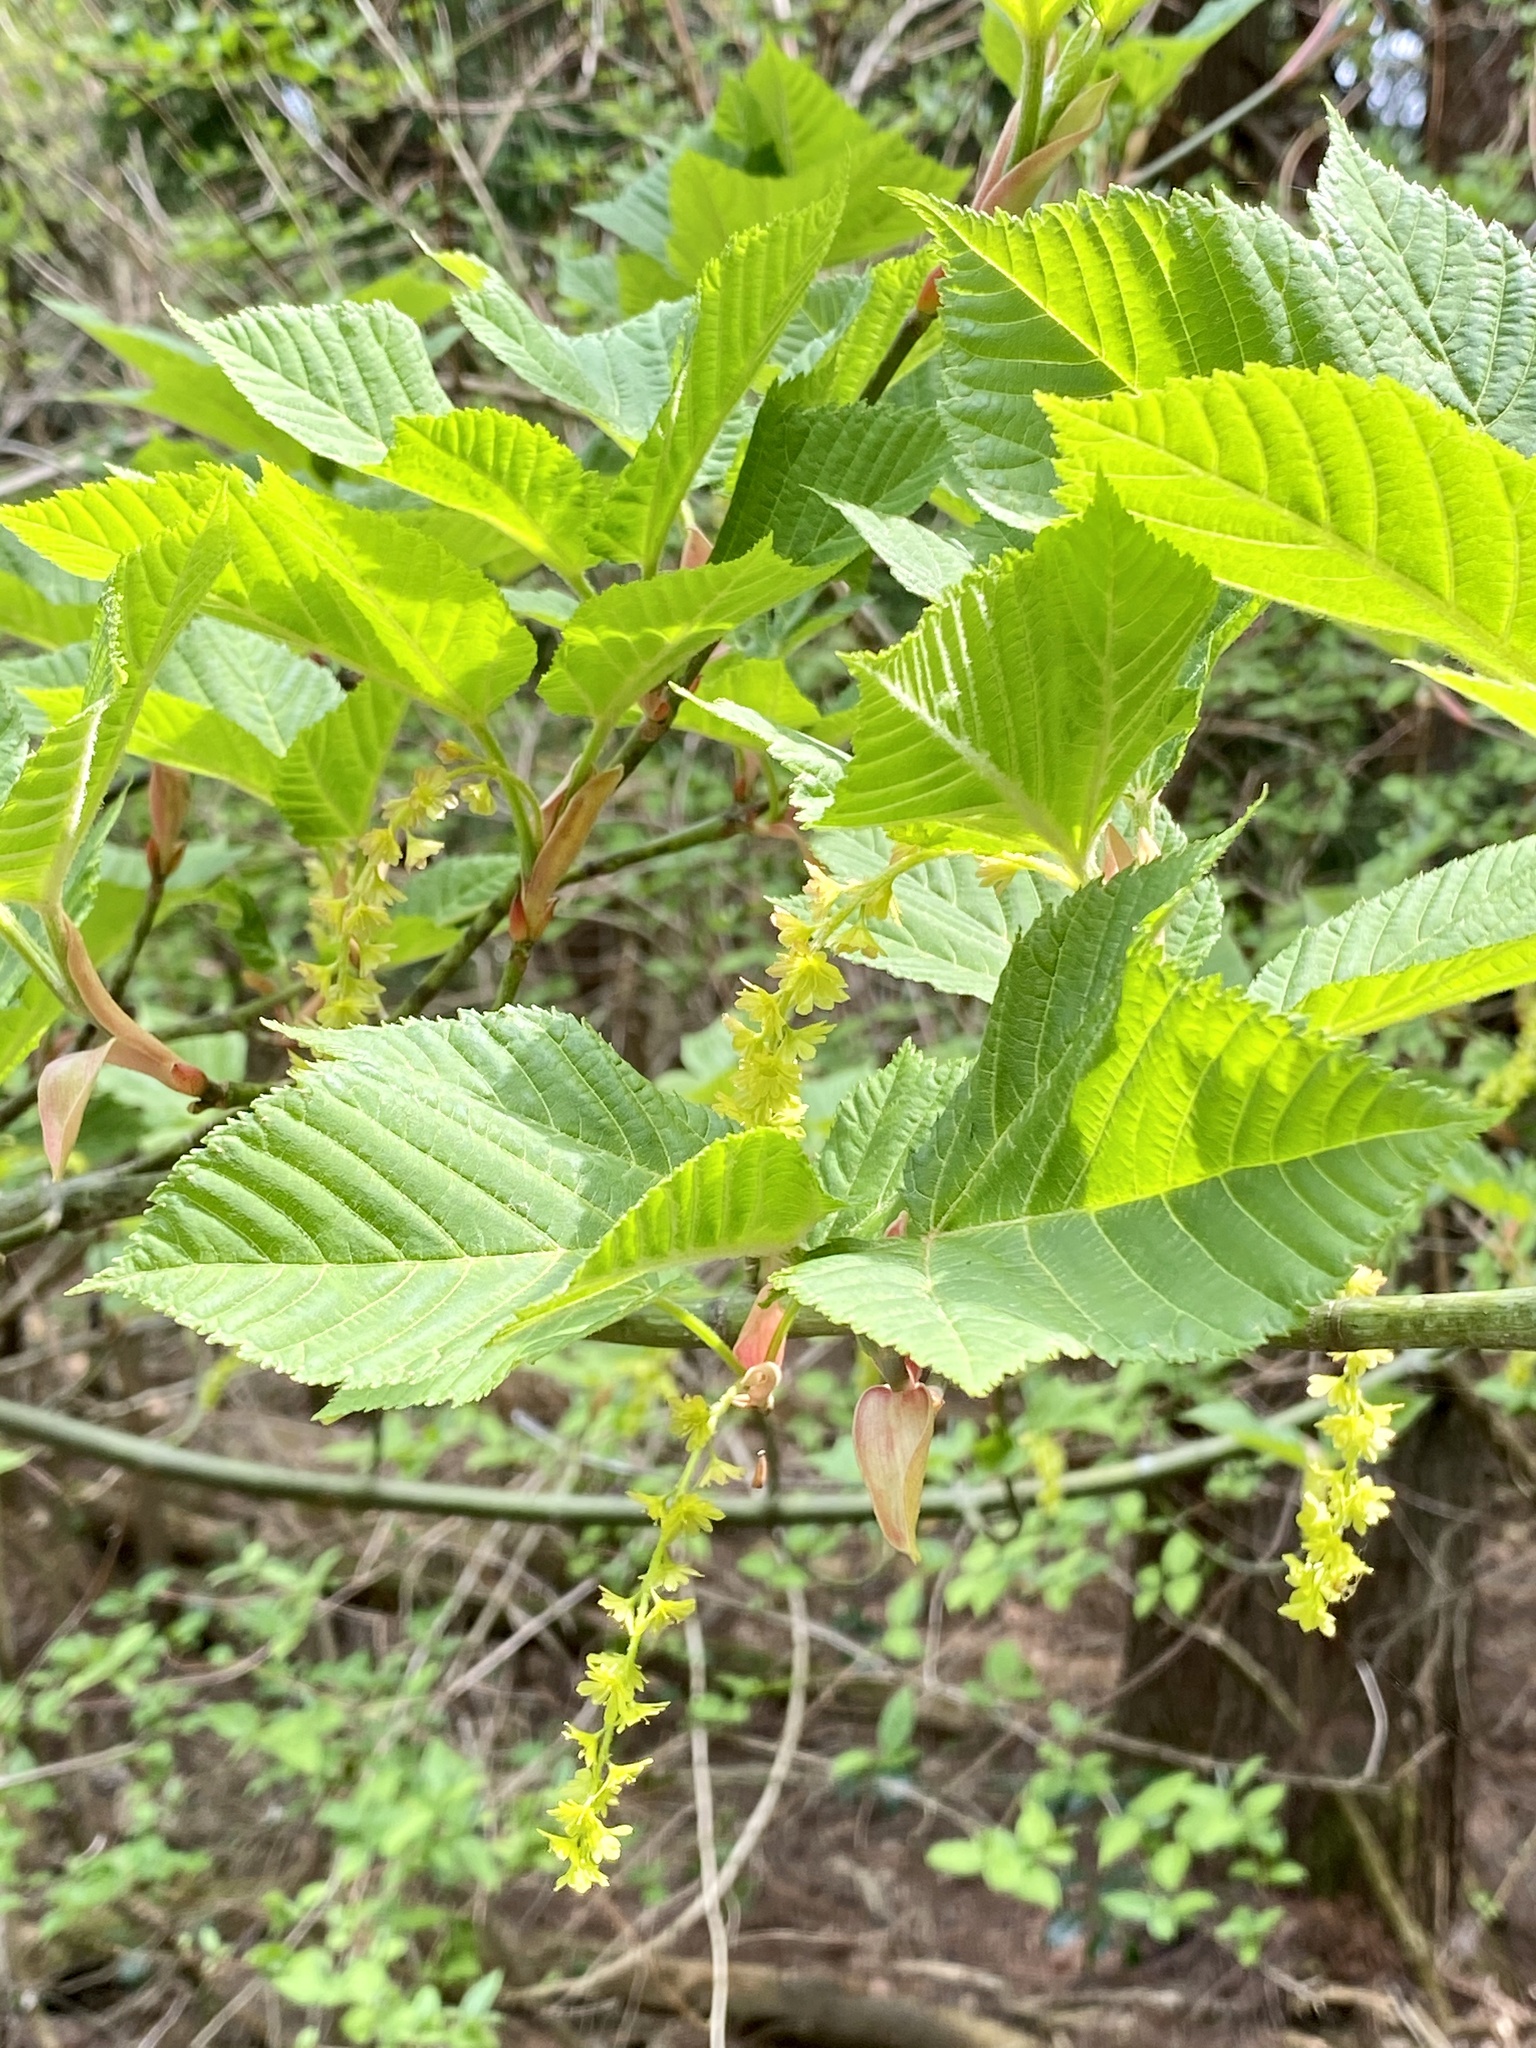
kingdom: Plantae
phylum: Tracheophyta
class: Magnoliopsida
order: Sapindales
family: Sapindaceae
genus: Acer
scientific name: Acer rufinerve
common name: Red veined maple
